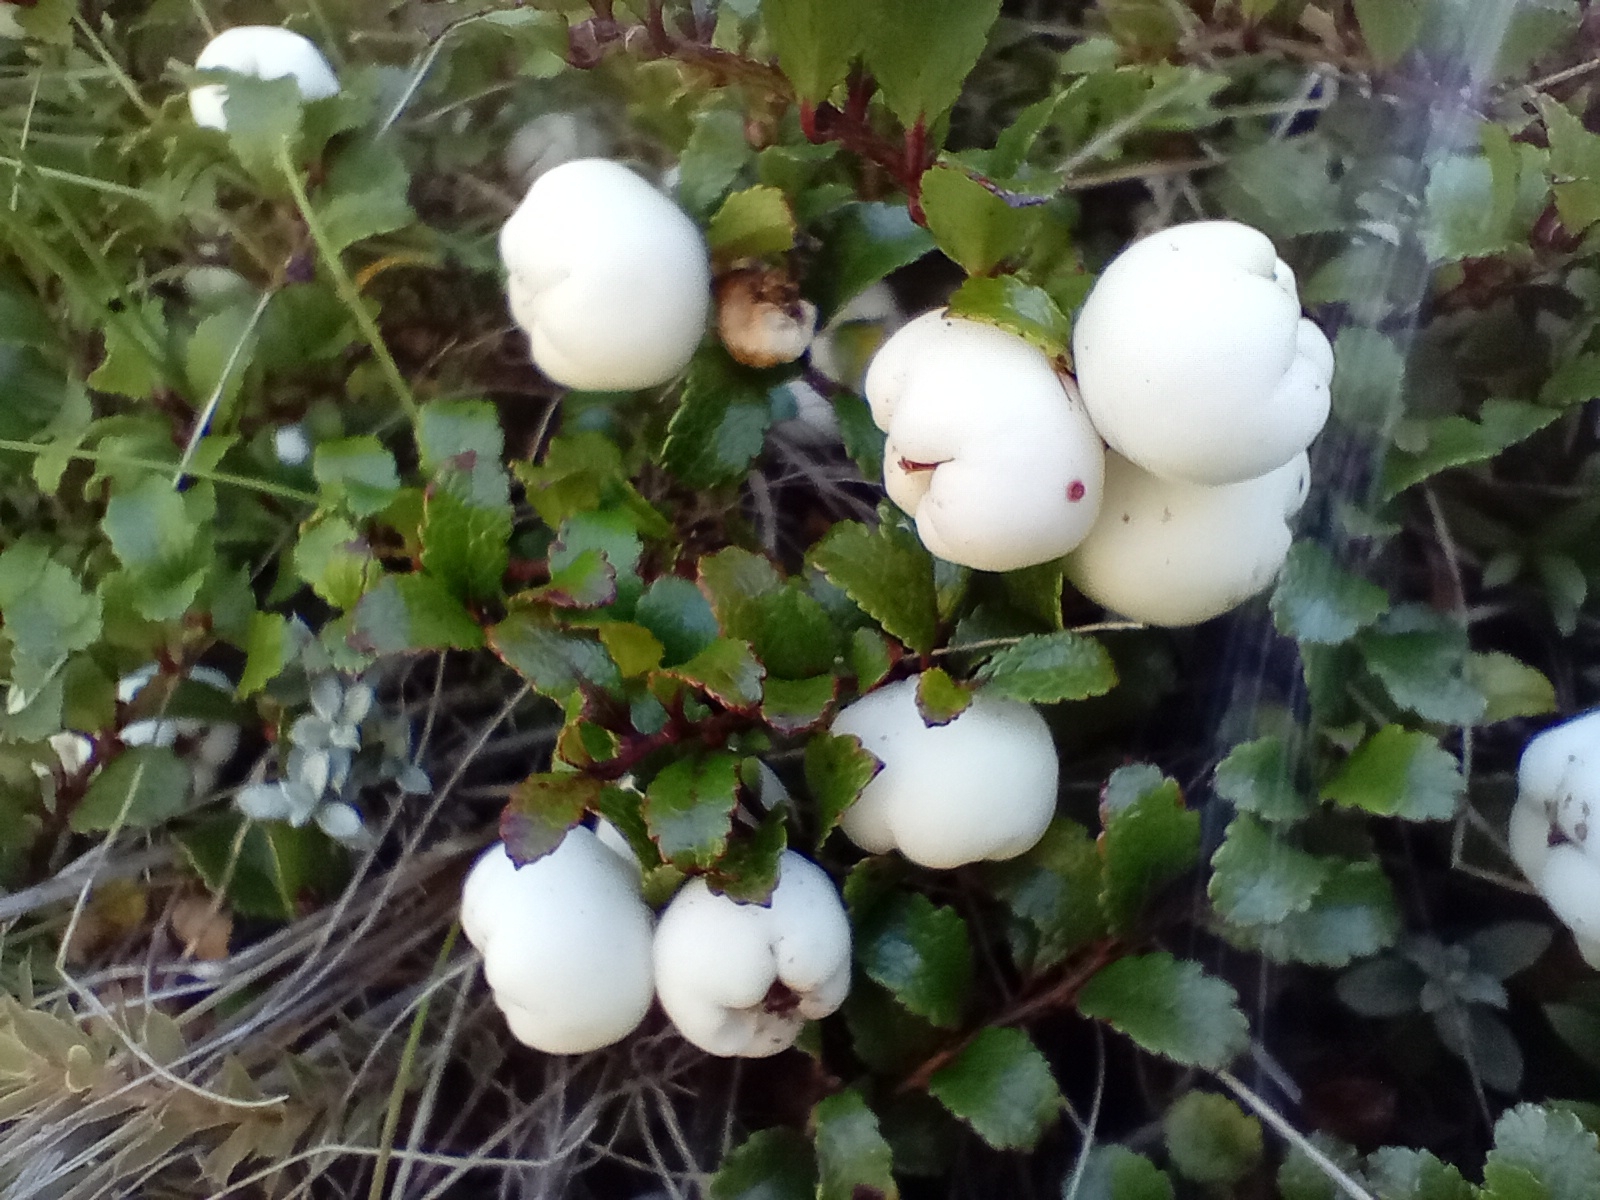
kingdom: Plantae
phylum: Tracheophyta
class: Magnoliopsida
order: Ericales
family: Ericaceae
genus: Gaultheria
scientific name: Gaultheria depressa
